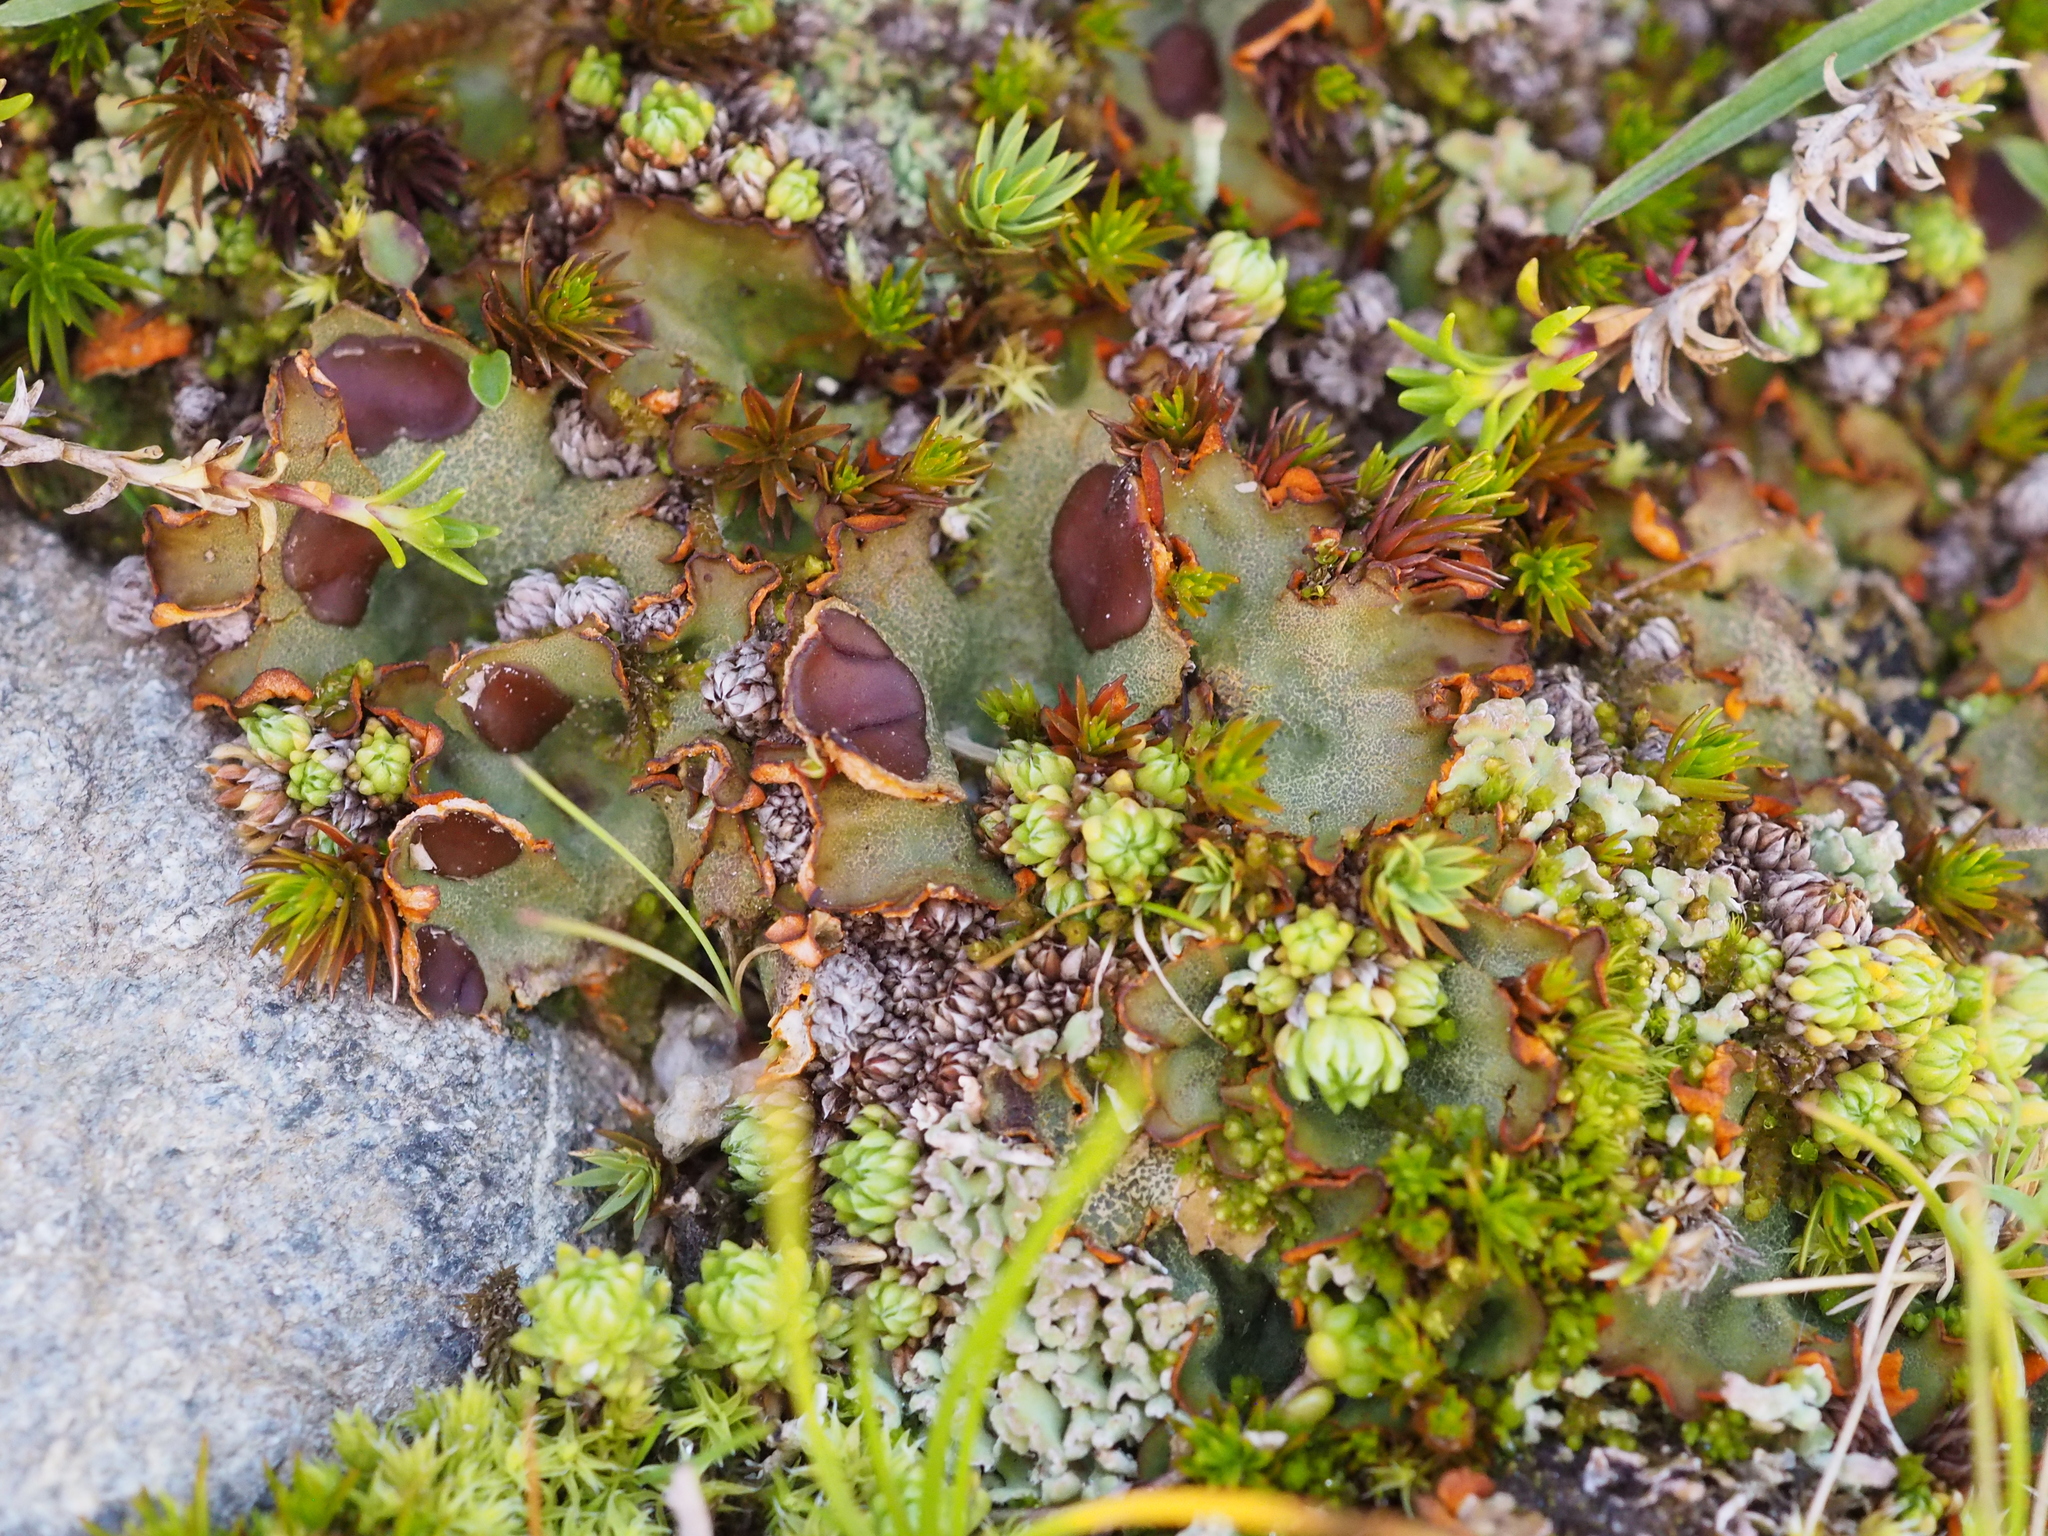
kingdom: Fungi
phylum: Ascomycota
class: Lecanoromycetes
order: Peltigerales
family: Peltigeraceae
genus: Solorina
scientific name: Solorina crocea
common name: Mountain saffron
